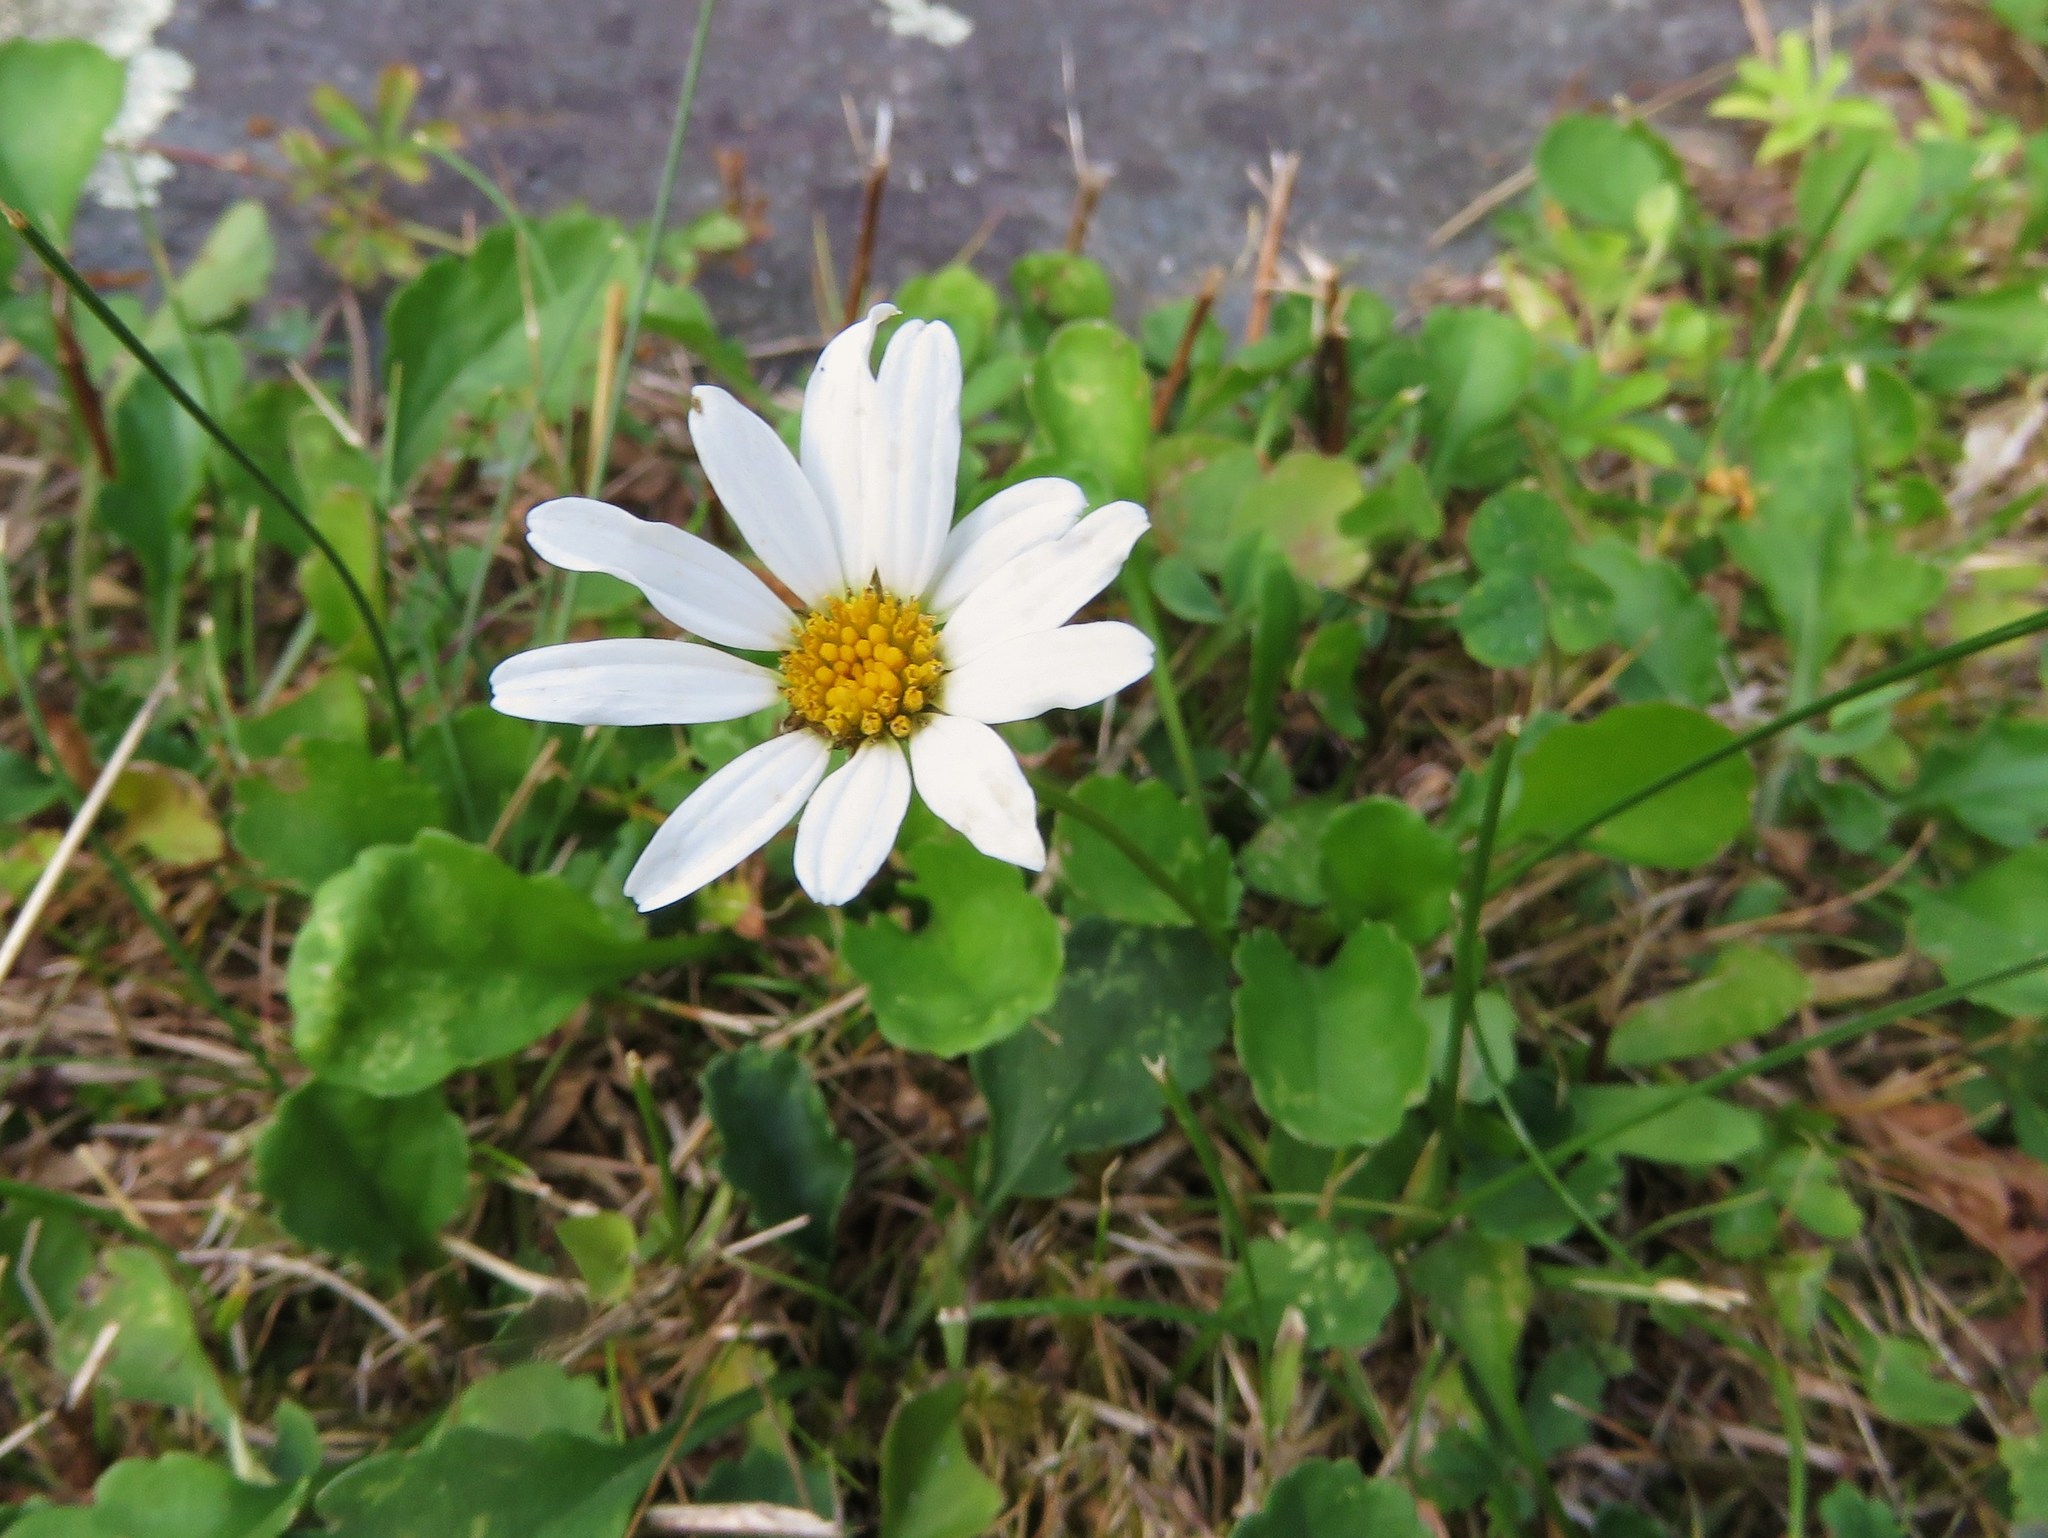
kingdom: Plantae
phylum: Tracheophyta
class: Magnoliopsida
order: Asterales
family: Asteraceae
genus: Leucanthemum
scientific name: Leucanthemum vulgare
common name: Oxeye daisy
